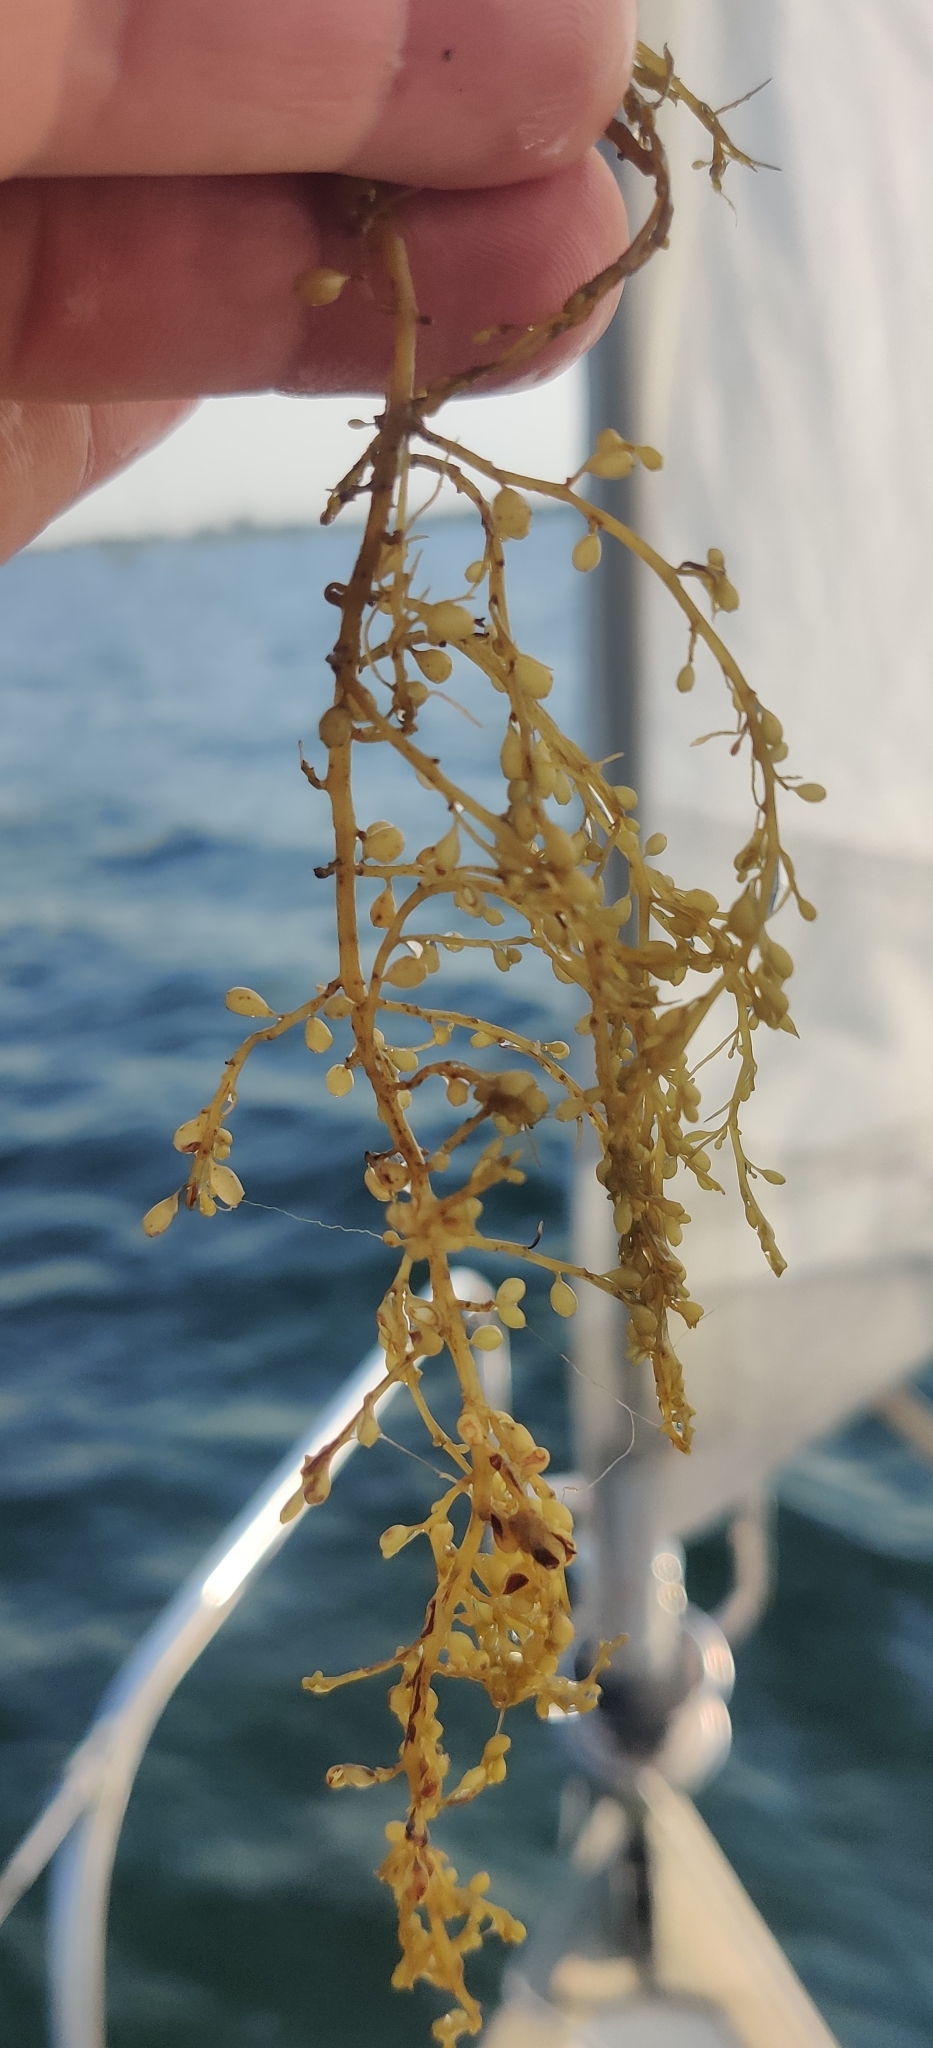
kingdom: Chromista
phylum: Ochrophyta
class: Phaeophyceae
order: Fucales
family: Sargassaceae
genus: Sargassum
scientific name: Sargassum muticum
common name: Japweed
